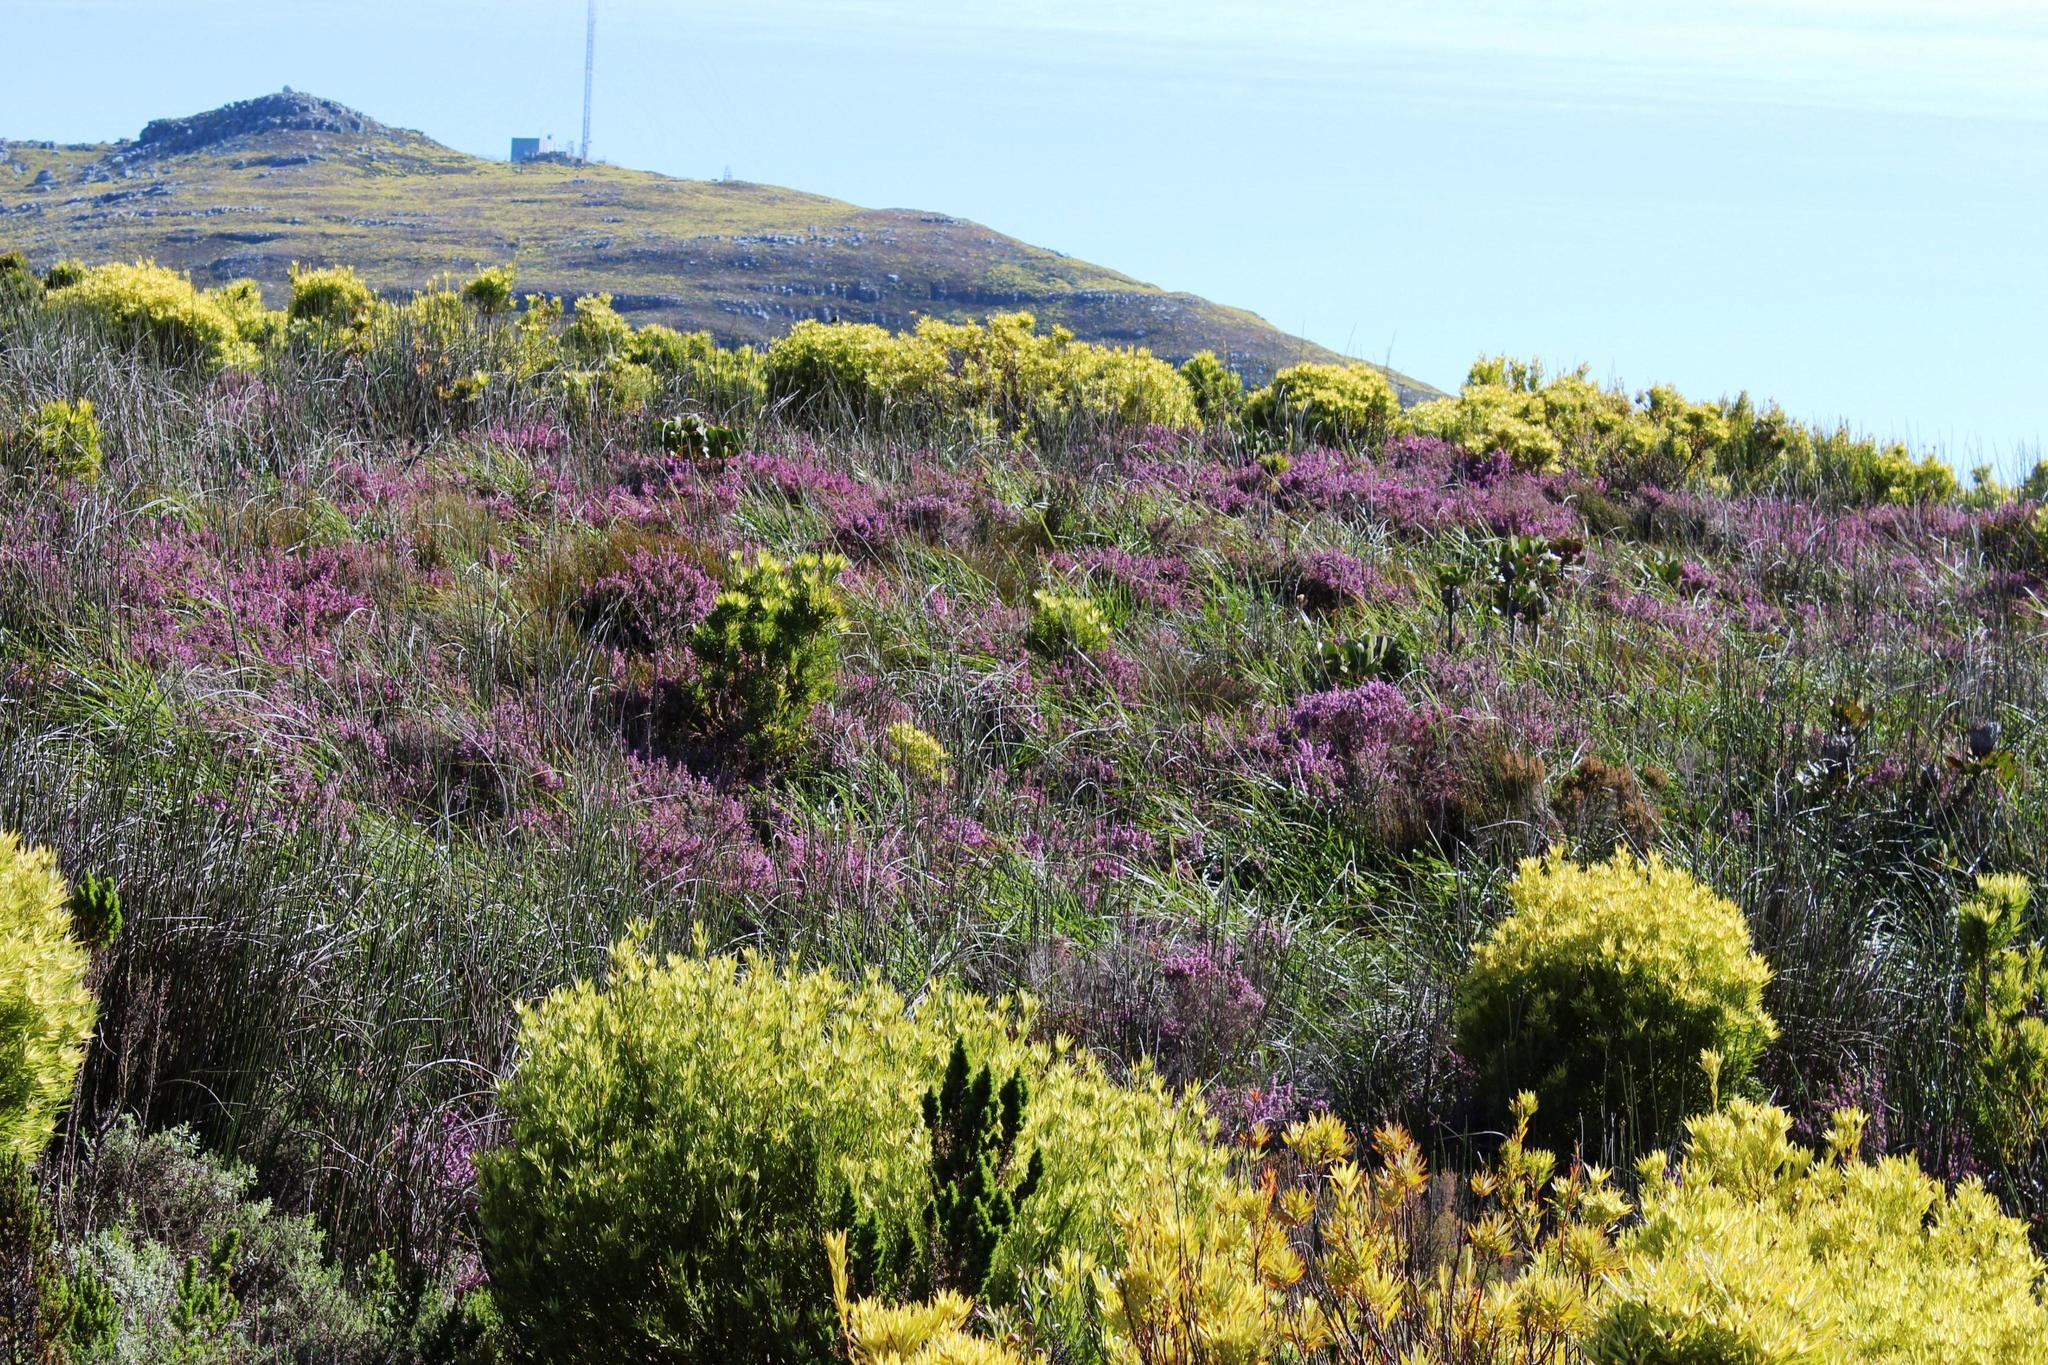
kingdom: Plantae
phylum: Tracheophyta
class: Magnoliopsida
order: Ericales
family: Ericaceae
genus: Erica
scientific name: Erica mollis
